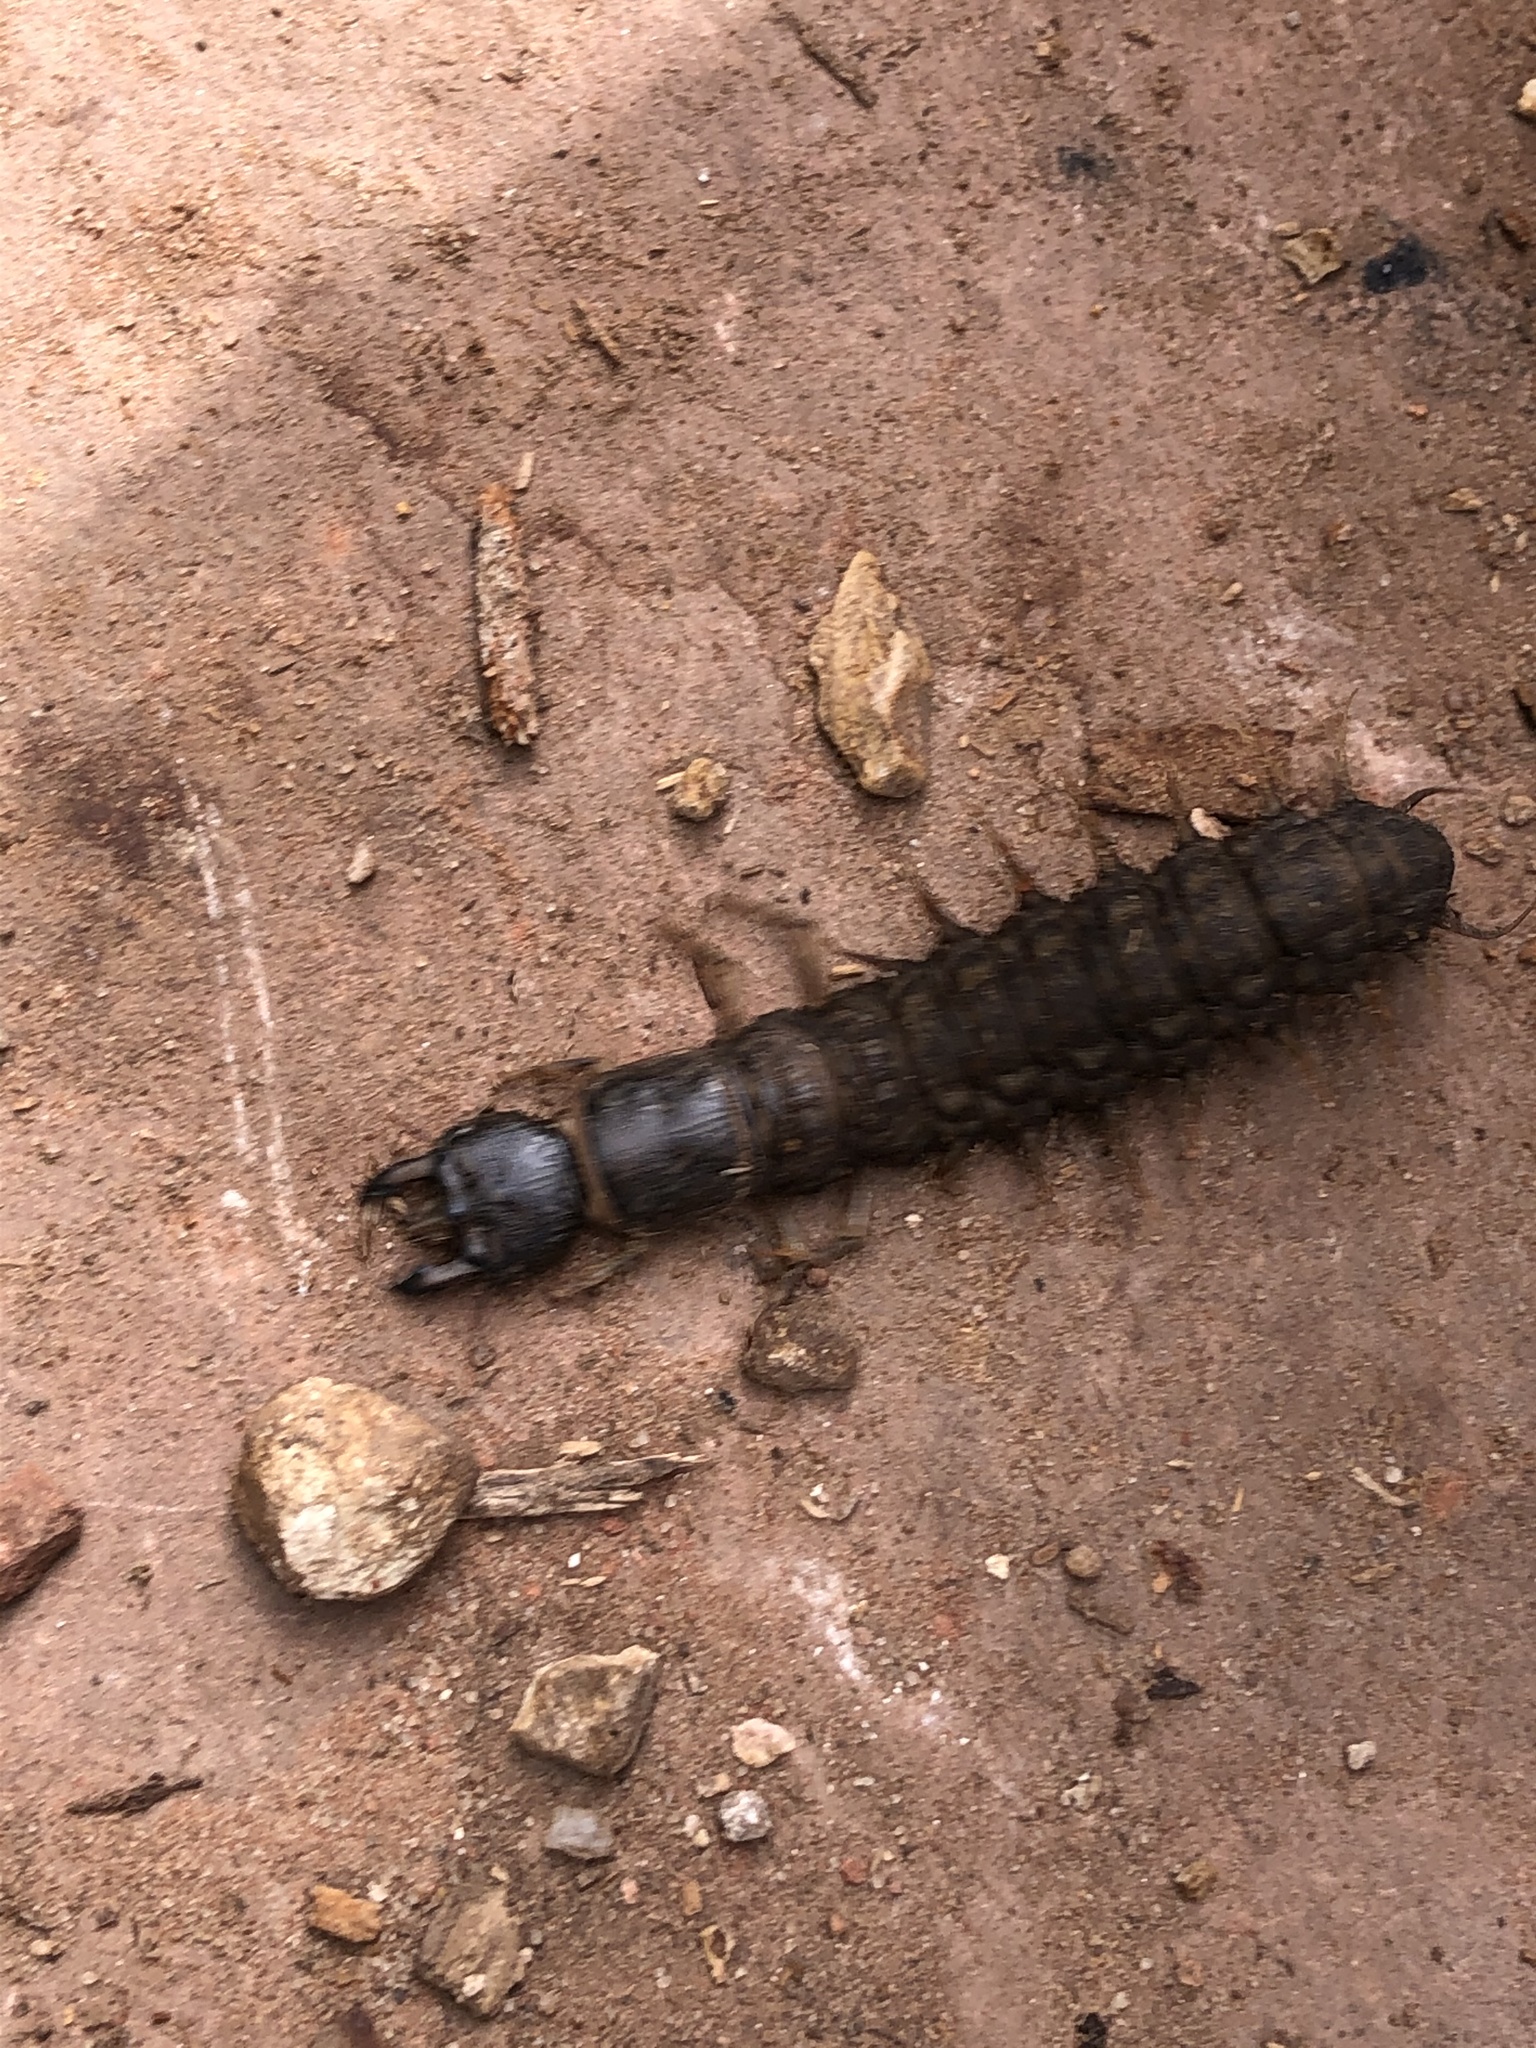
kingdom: Animalia
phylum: Arthropoda
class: Insecta
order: Megaloptera
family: Corydalidae
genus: Corydalus
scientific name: Corydalus texanus
